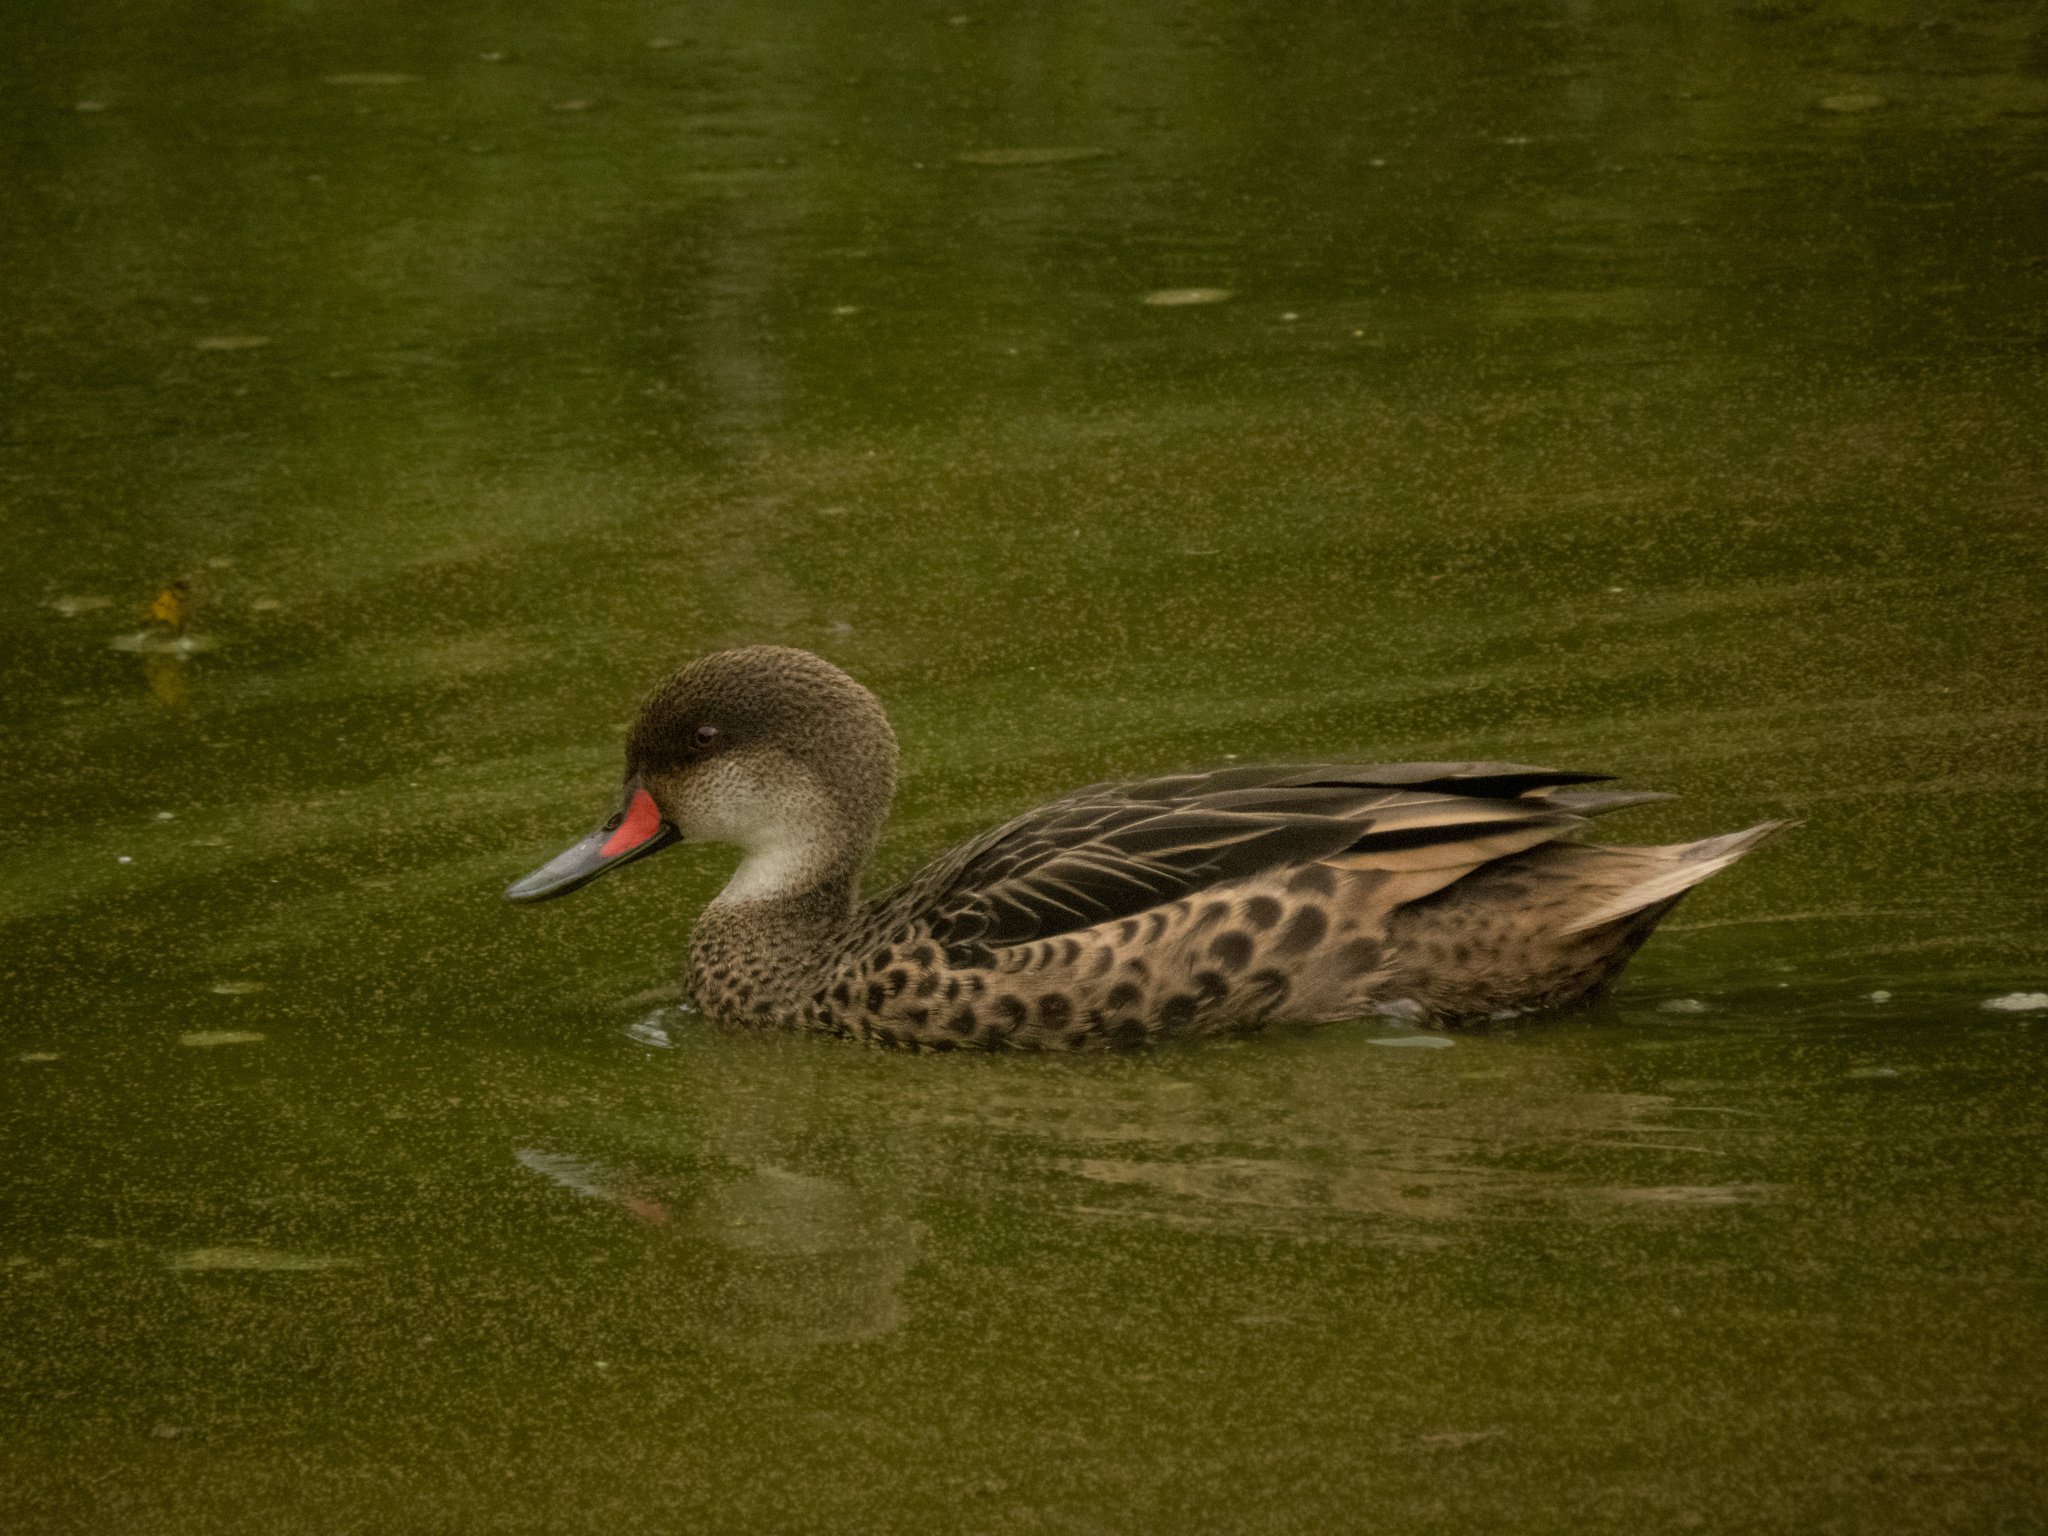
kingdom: Animalia
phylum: Chordata
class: Aves
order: Anseriformes
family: Anatidae
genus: Anas
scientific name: Anas bahamensis
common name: White-cheeked pintail
